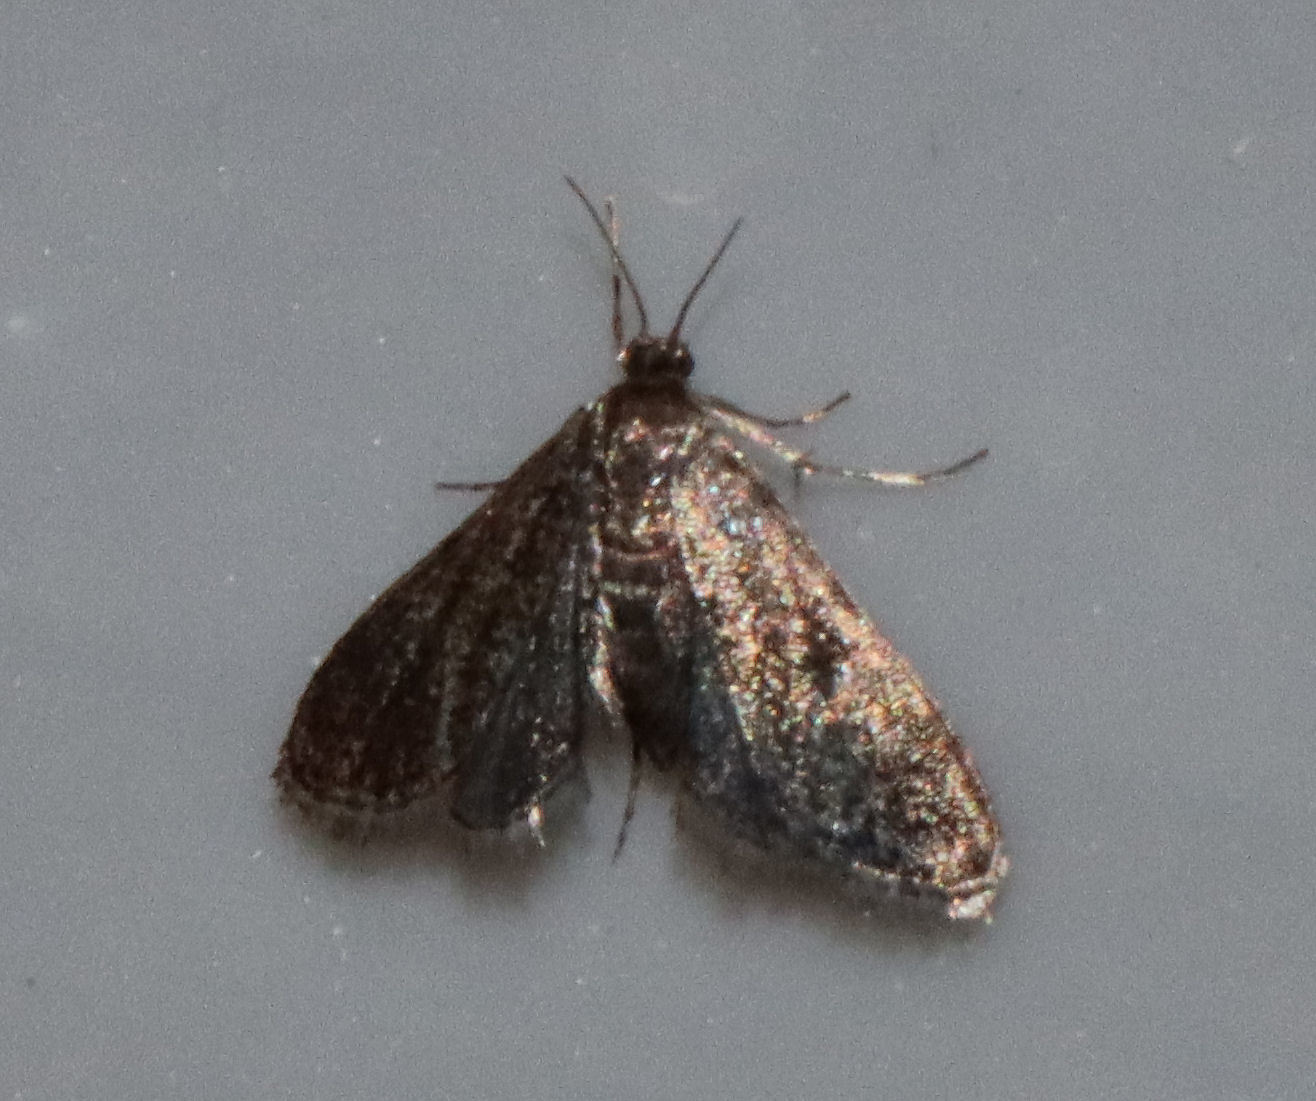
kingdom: Animalia
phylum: Arthropoda
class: Insecta
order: Lepidoptera
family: Crambidae
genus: Elophila
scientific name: Elophila tinealis
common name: Black duckweed moth
